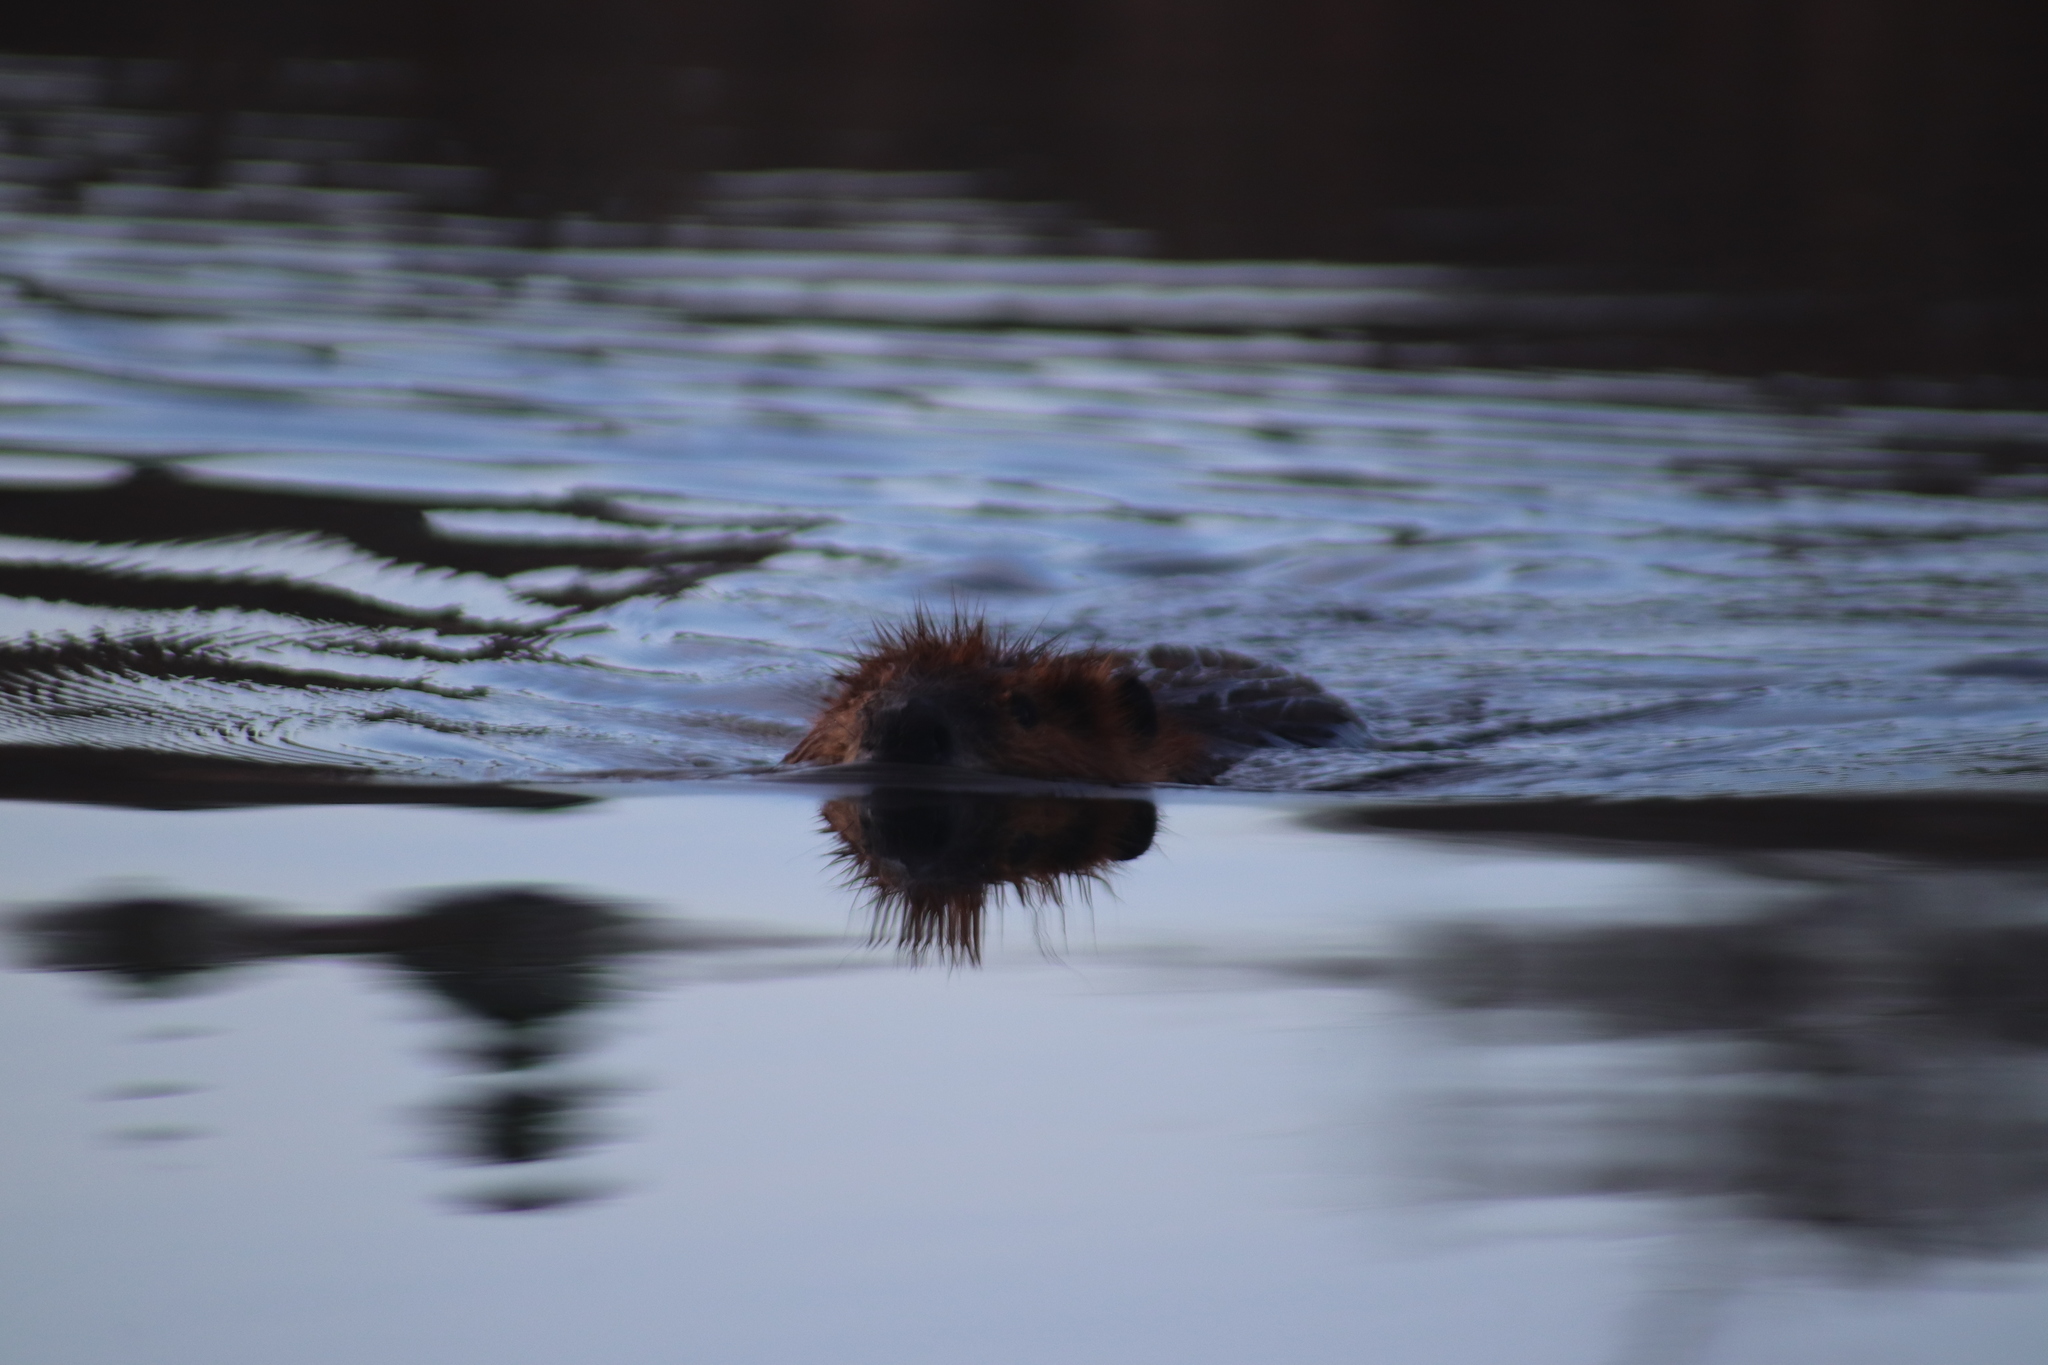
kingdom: Animalia
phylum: Chordata
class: Mammalia
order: Rodentia
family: Castoridae
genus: Castor
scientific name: Castor canadensis
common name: American beaver
